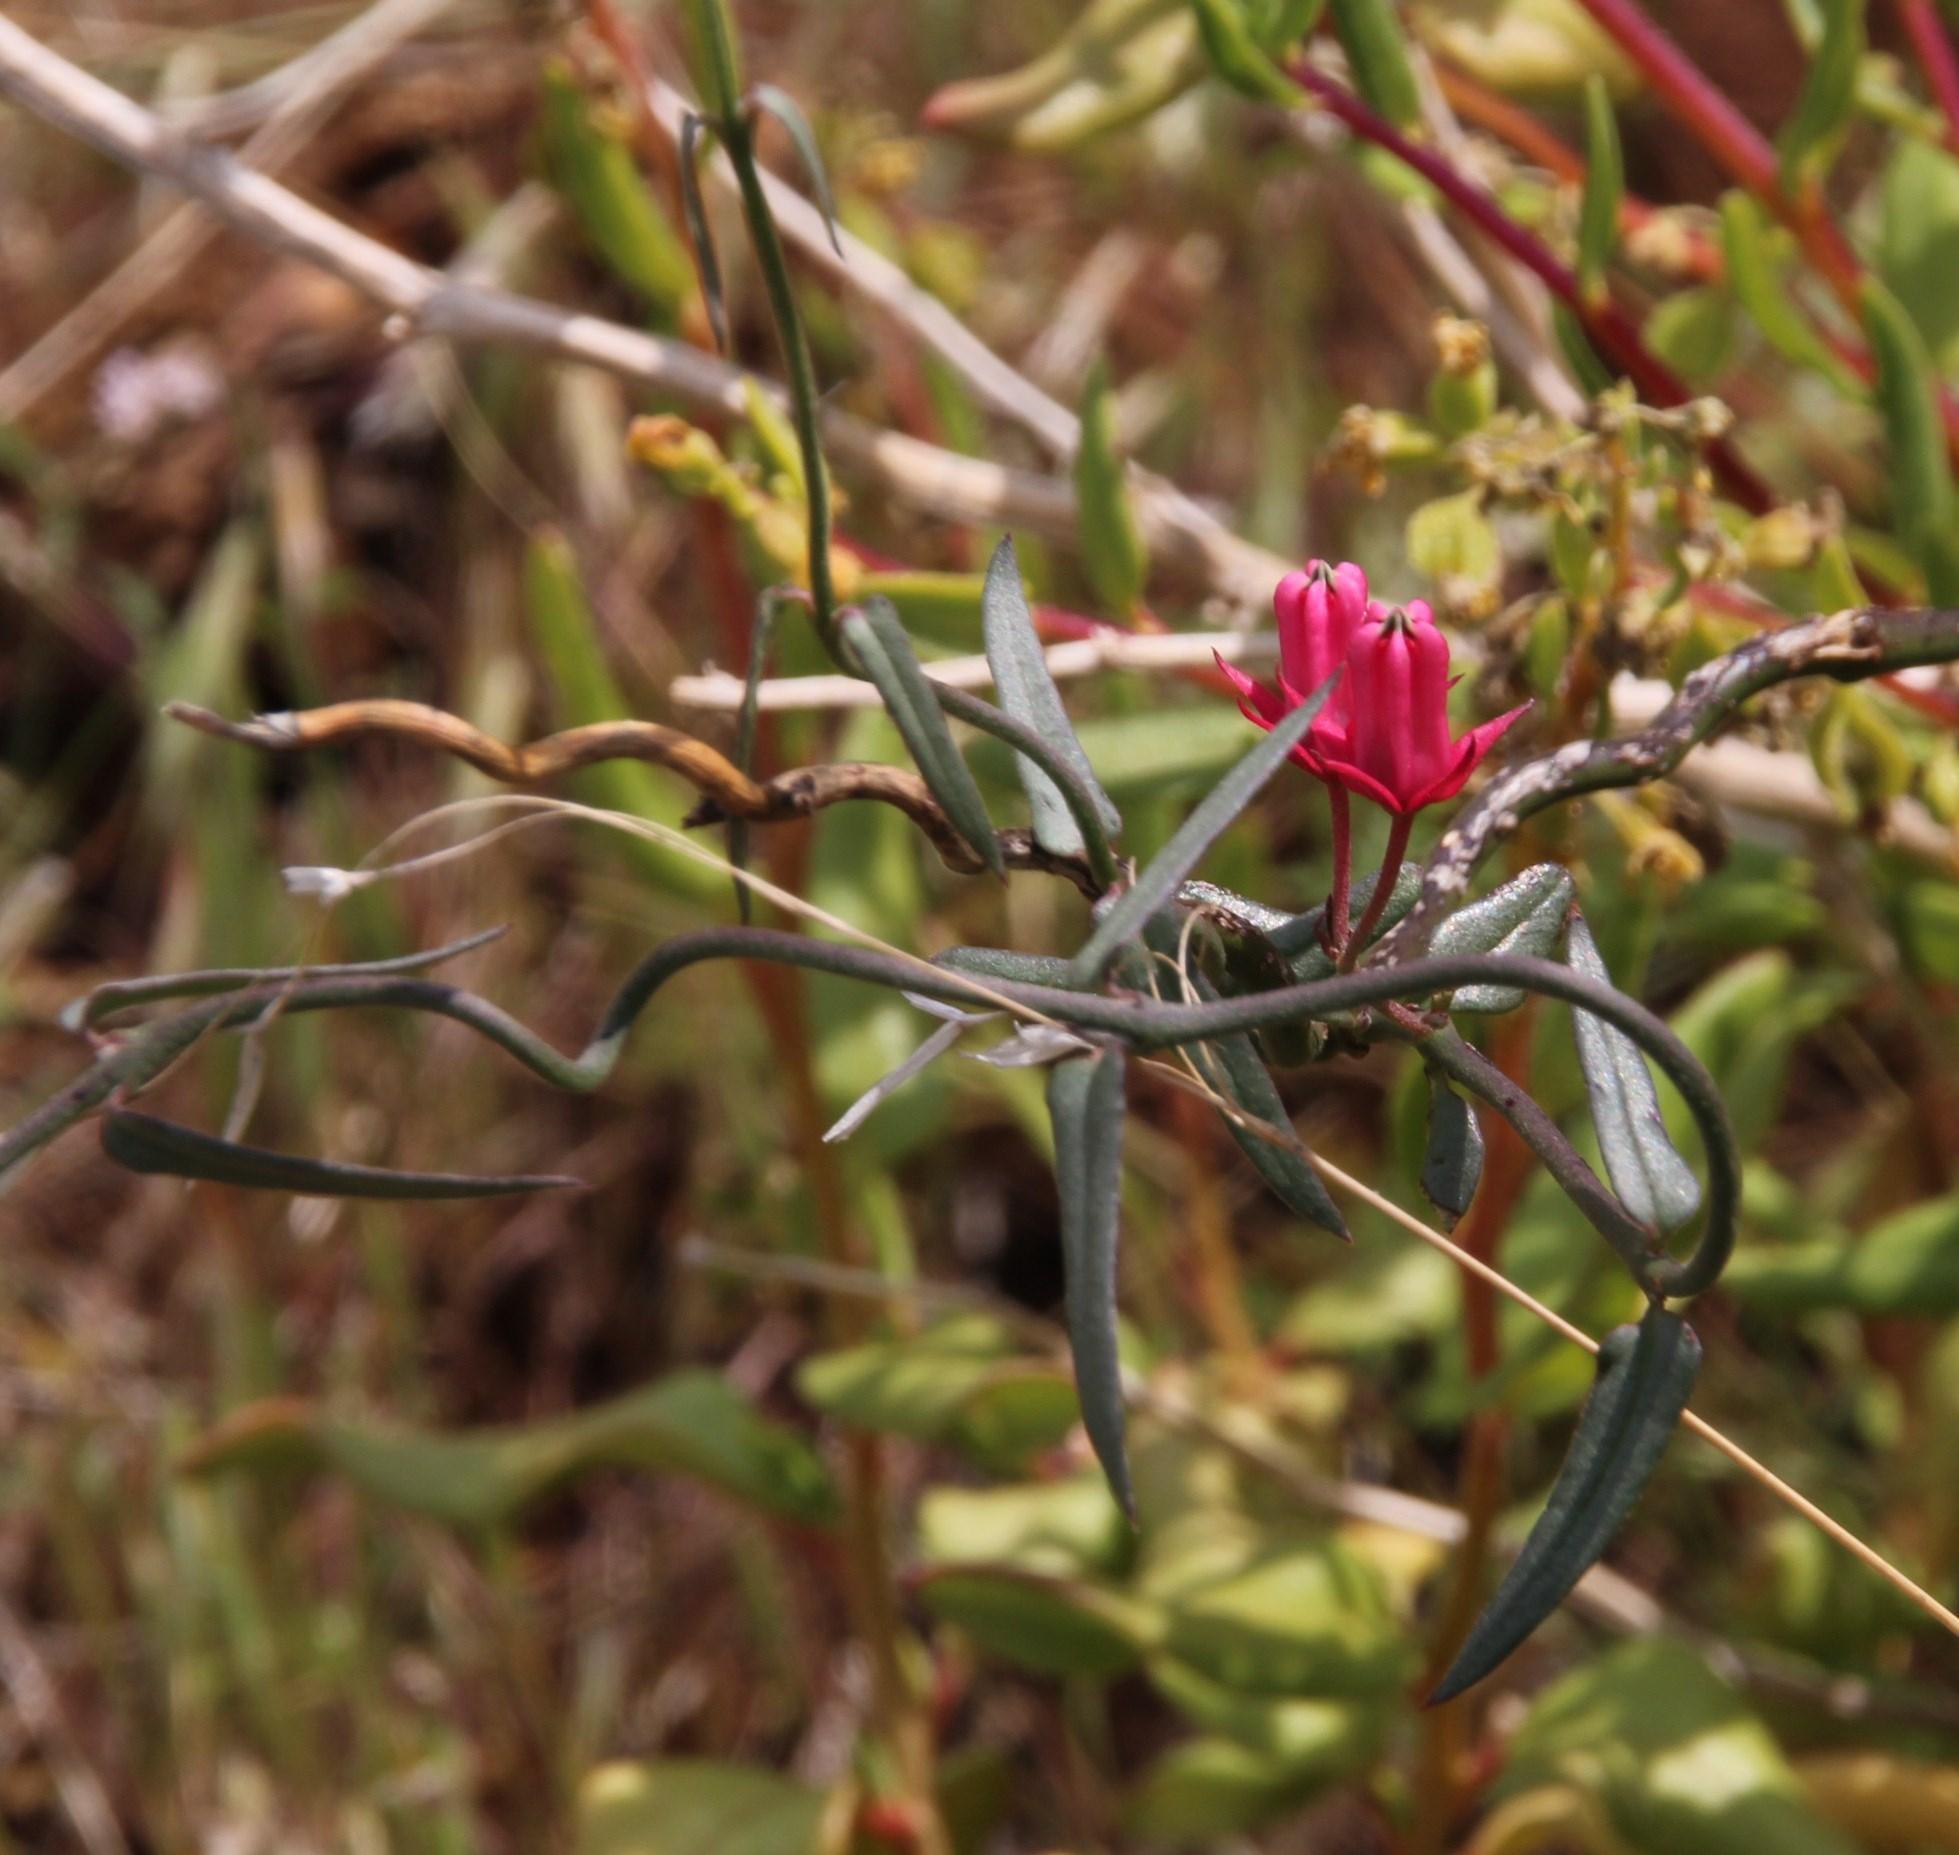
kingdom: Plantae
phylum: Tracheophyta
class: Magnoliopsida
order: Gentianales
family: Apocynaceae
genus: Microloma
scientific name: Microloma sagittatum
